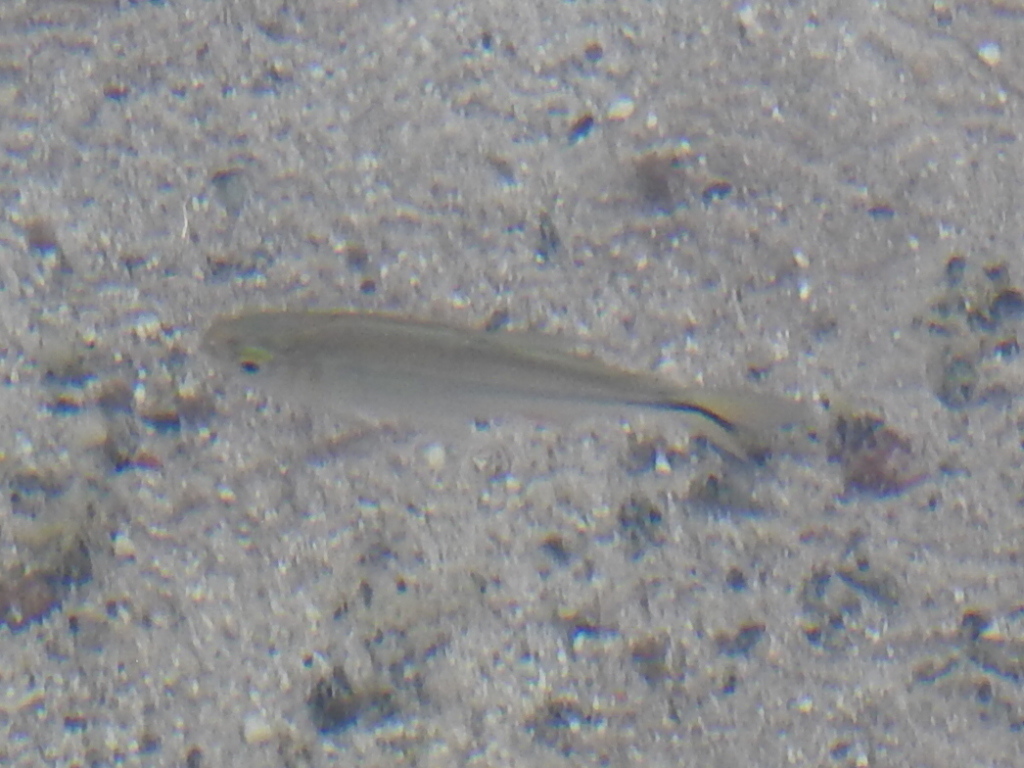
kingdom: Animalia
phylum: Chordata
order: Characiformes
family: Characidae
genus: Astyanax
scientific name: Astyanax mexicanus
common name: Mexican tetra
